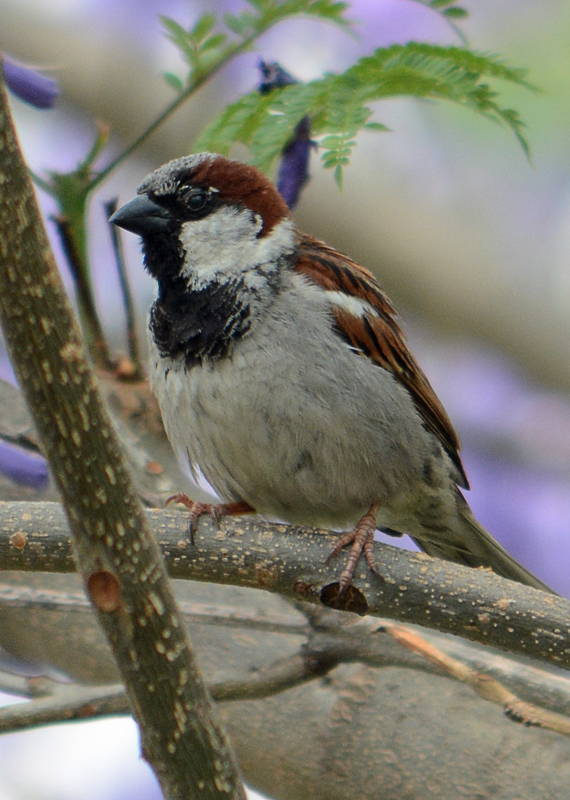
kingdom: Animalia
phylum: Chordata
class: Aves
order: Passeriformes
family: Passeridae
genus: Passer
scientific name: Passer domesticus
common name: House sparrow
